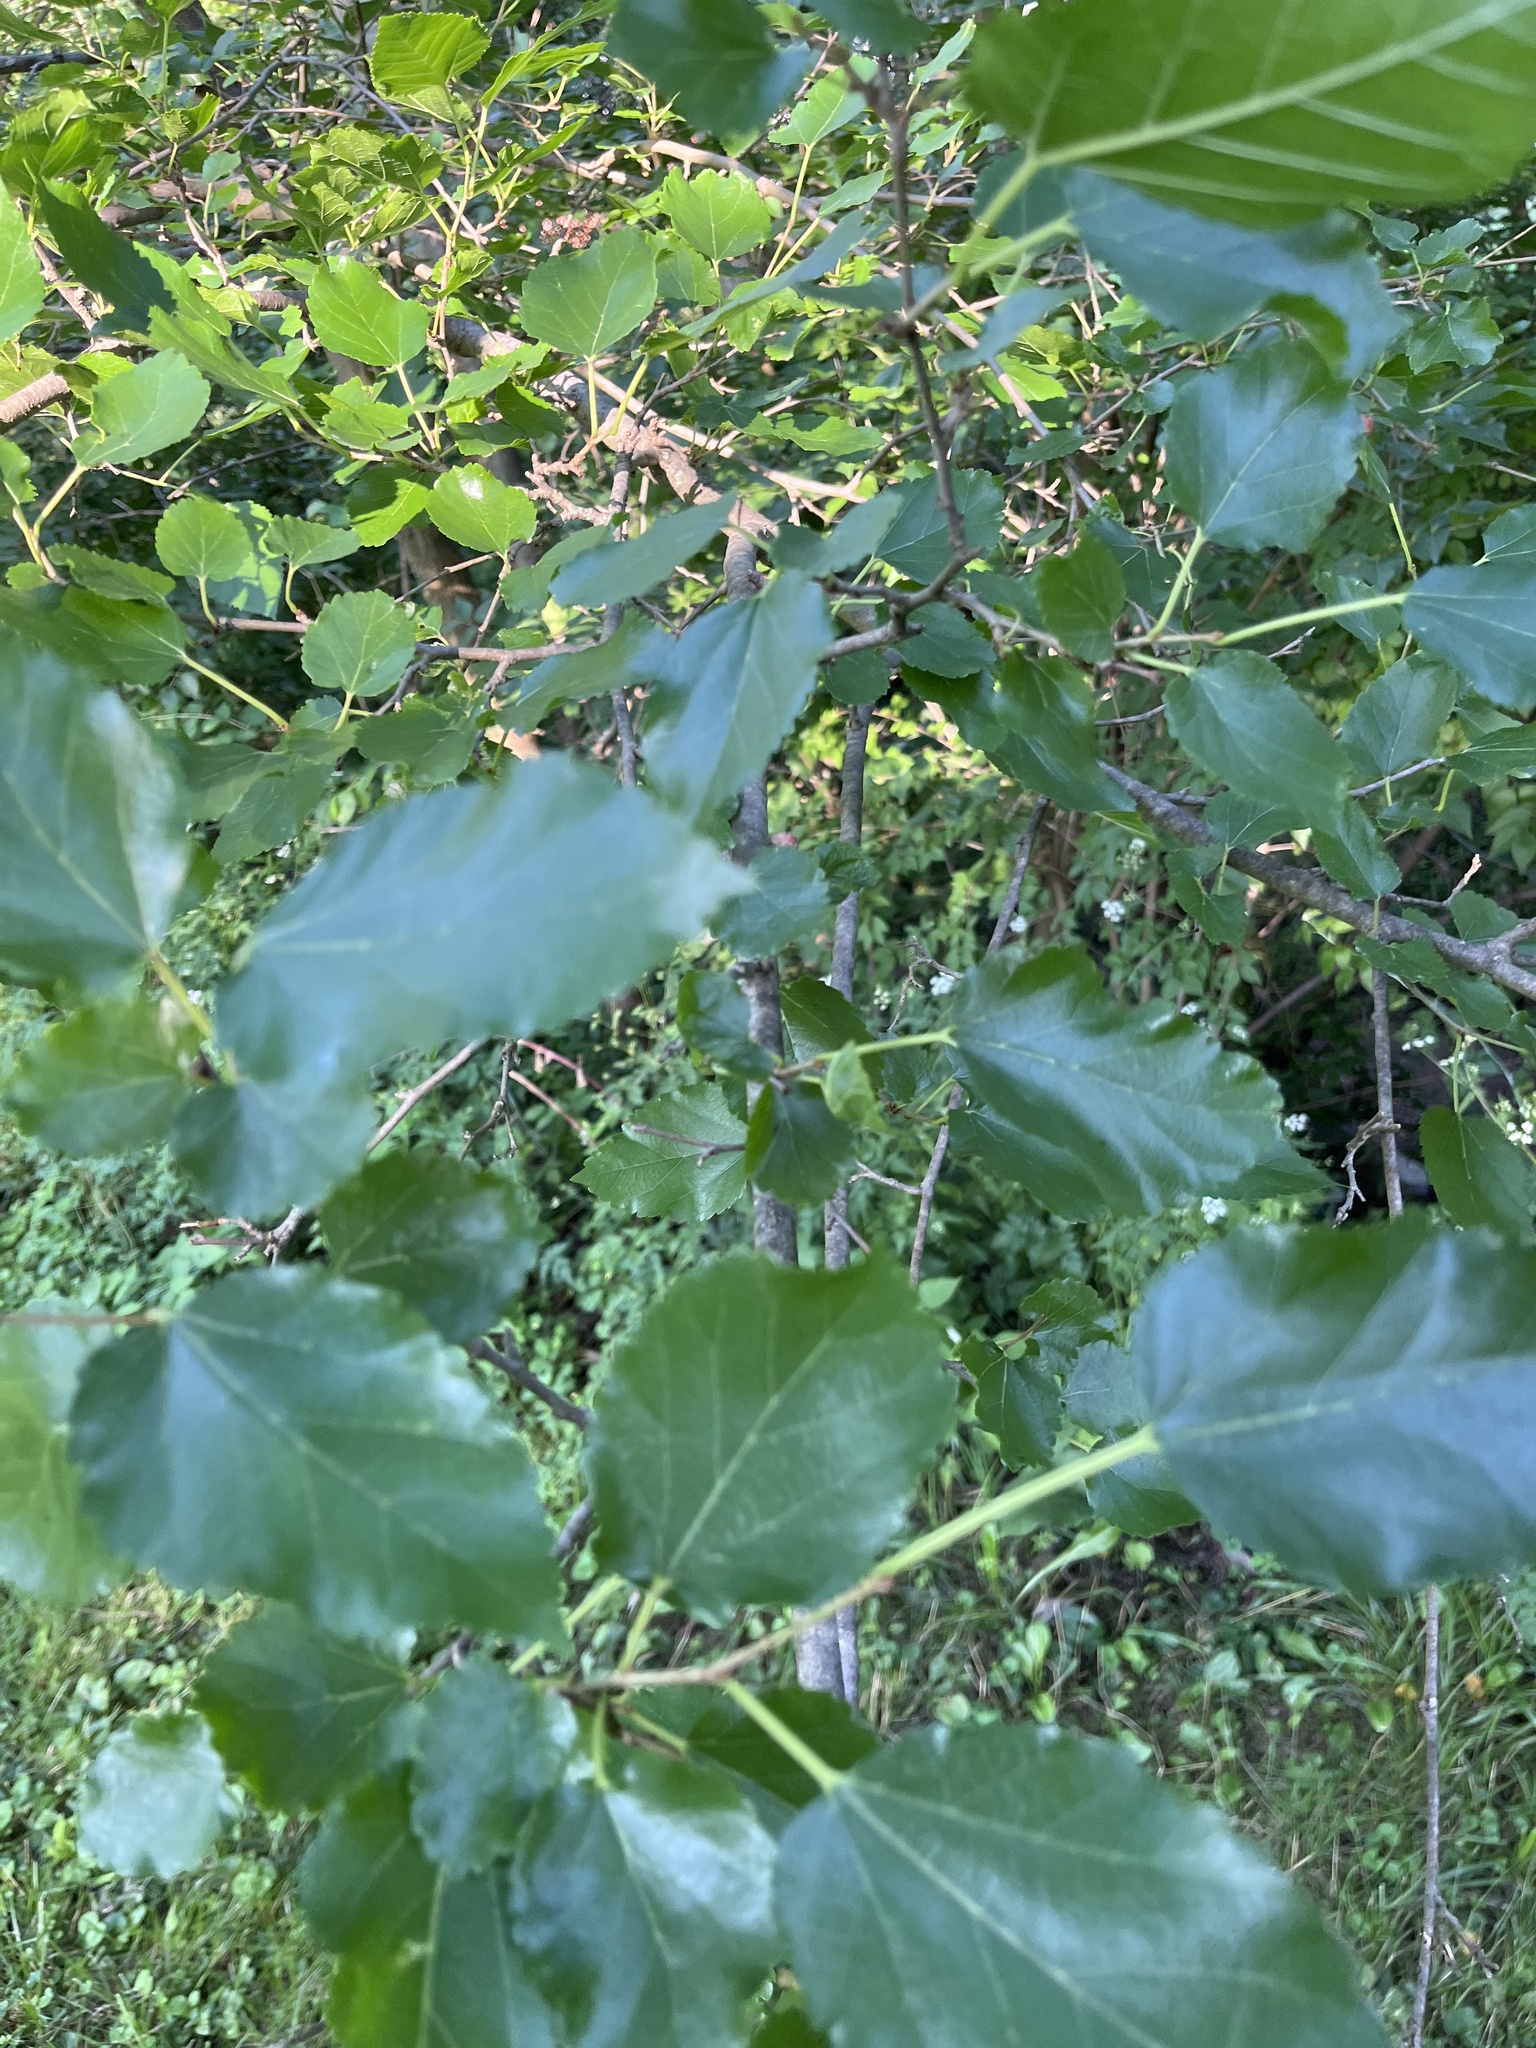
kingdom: Plantae
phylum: Tracheophyta
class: Magnoliopsida
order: Rosales
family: Moraceae
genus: Morus
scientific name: Morus alba
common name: White mulberry
